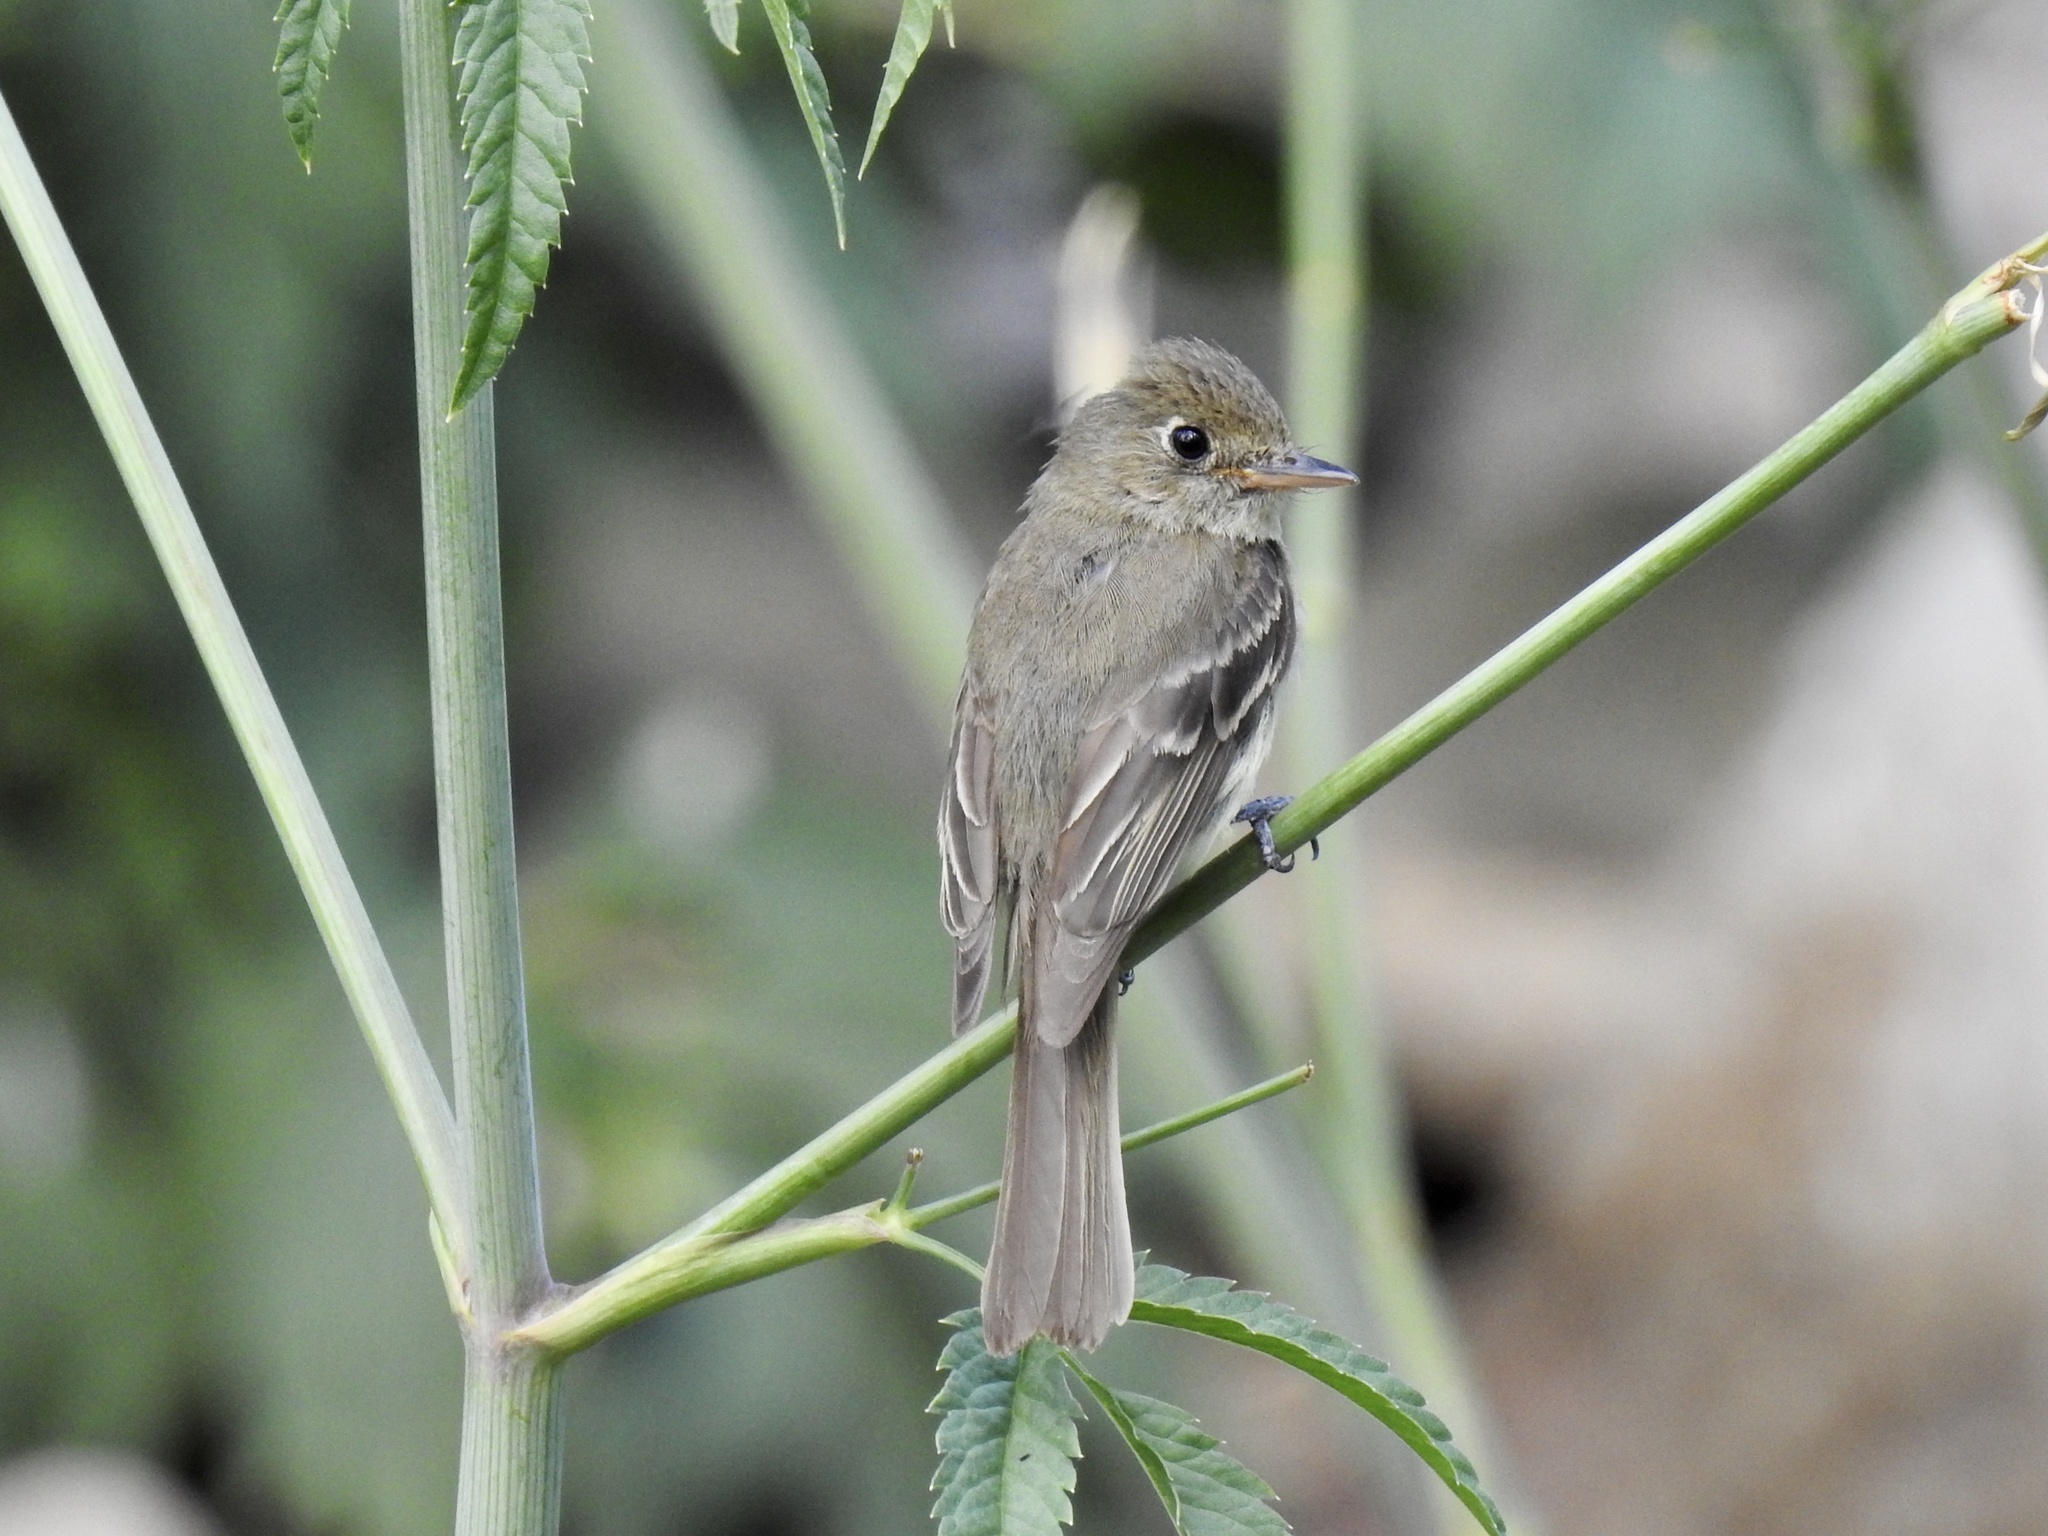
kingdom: Animalia
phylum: Chordata
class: Aves
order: Passeriformes
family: Tyrannidae
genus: Empidonax
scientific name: Empidonax difficilis
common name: Pacific-slope flycatcher
